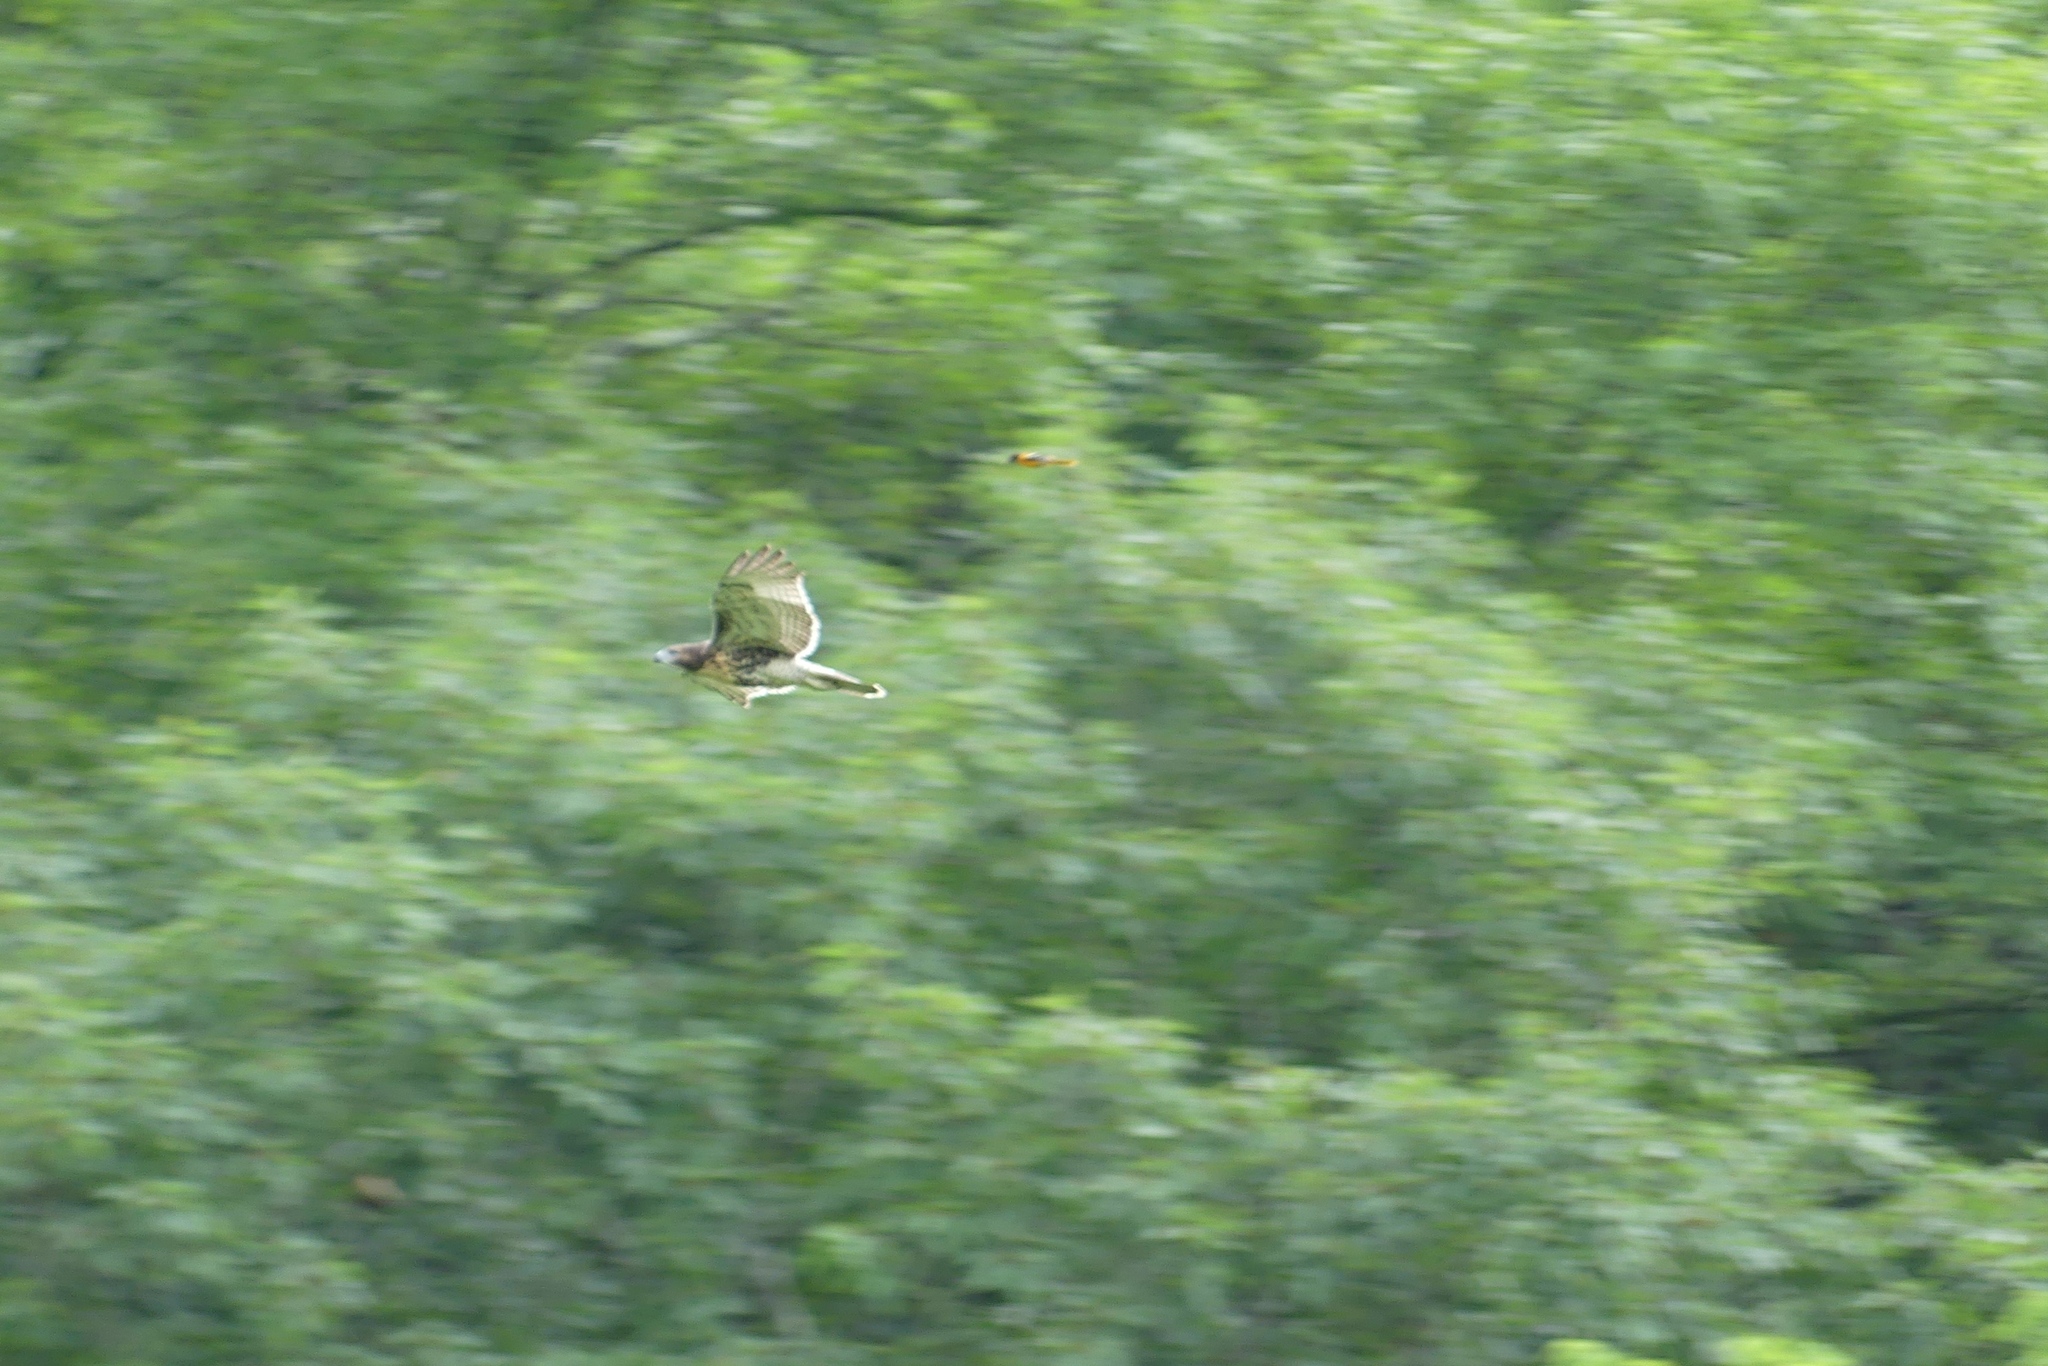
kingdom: Animalia
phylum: Chordata
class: Aves
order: Passeriformes
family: Icteridae
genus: Icterus
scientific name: Icterus galbula
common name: Baltimore oriole
